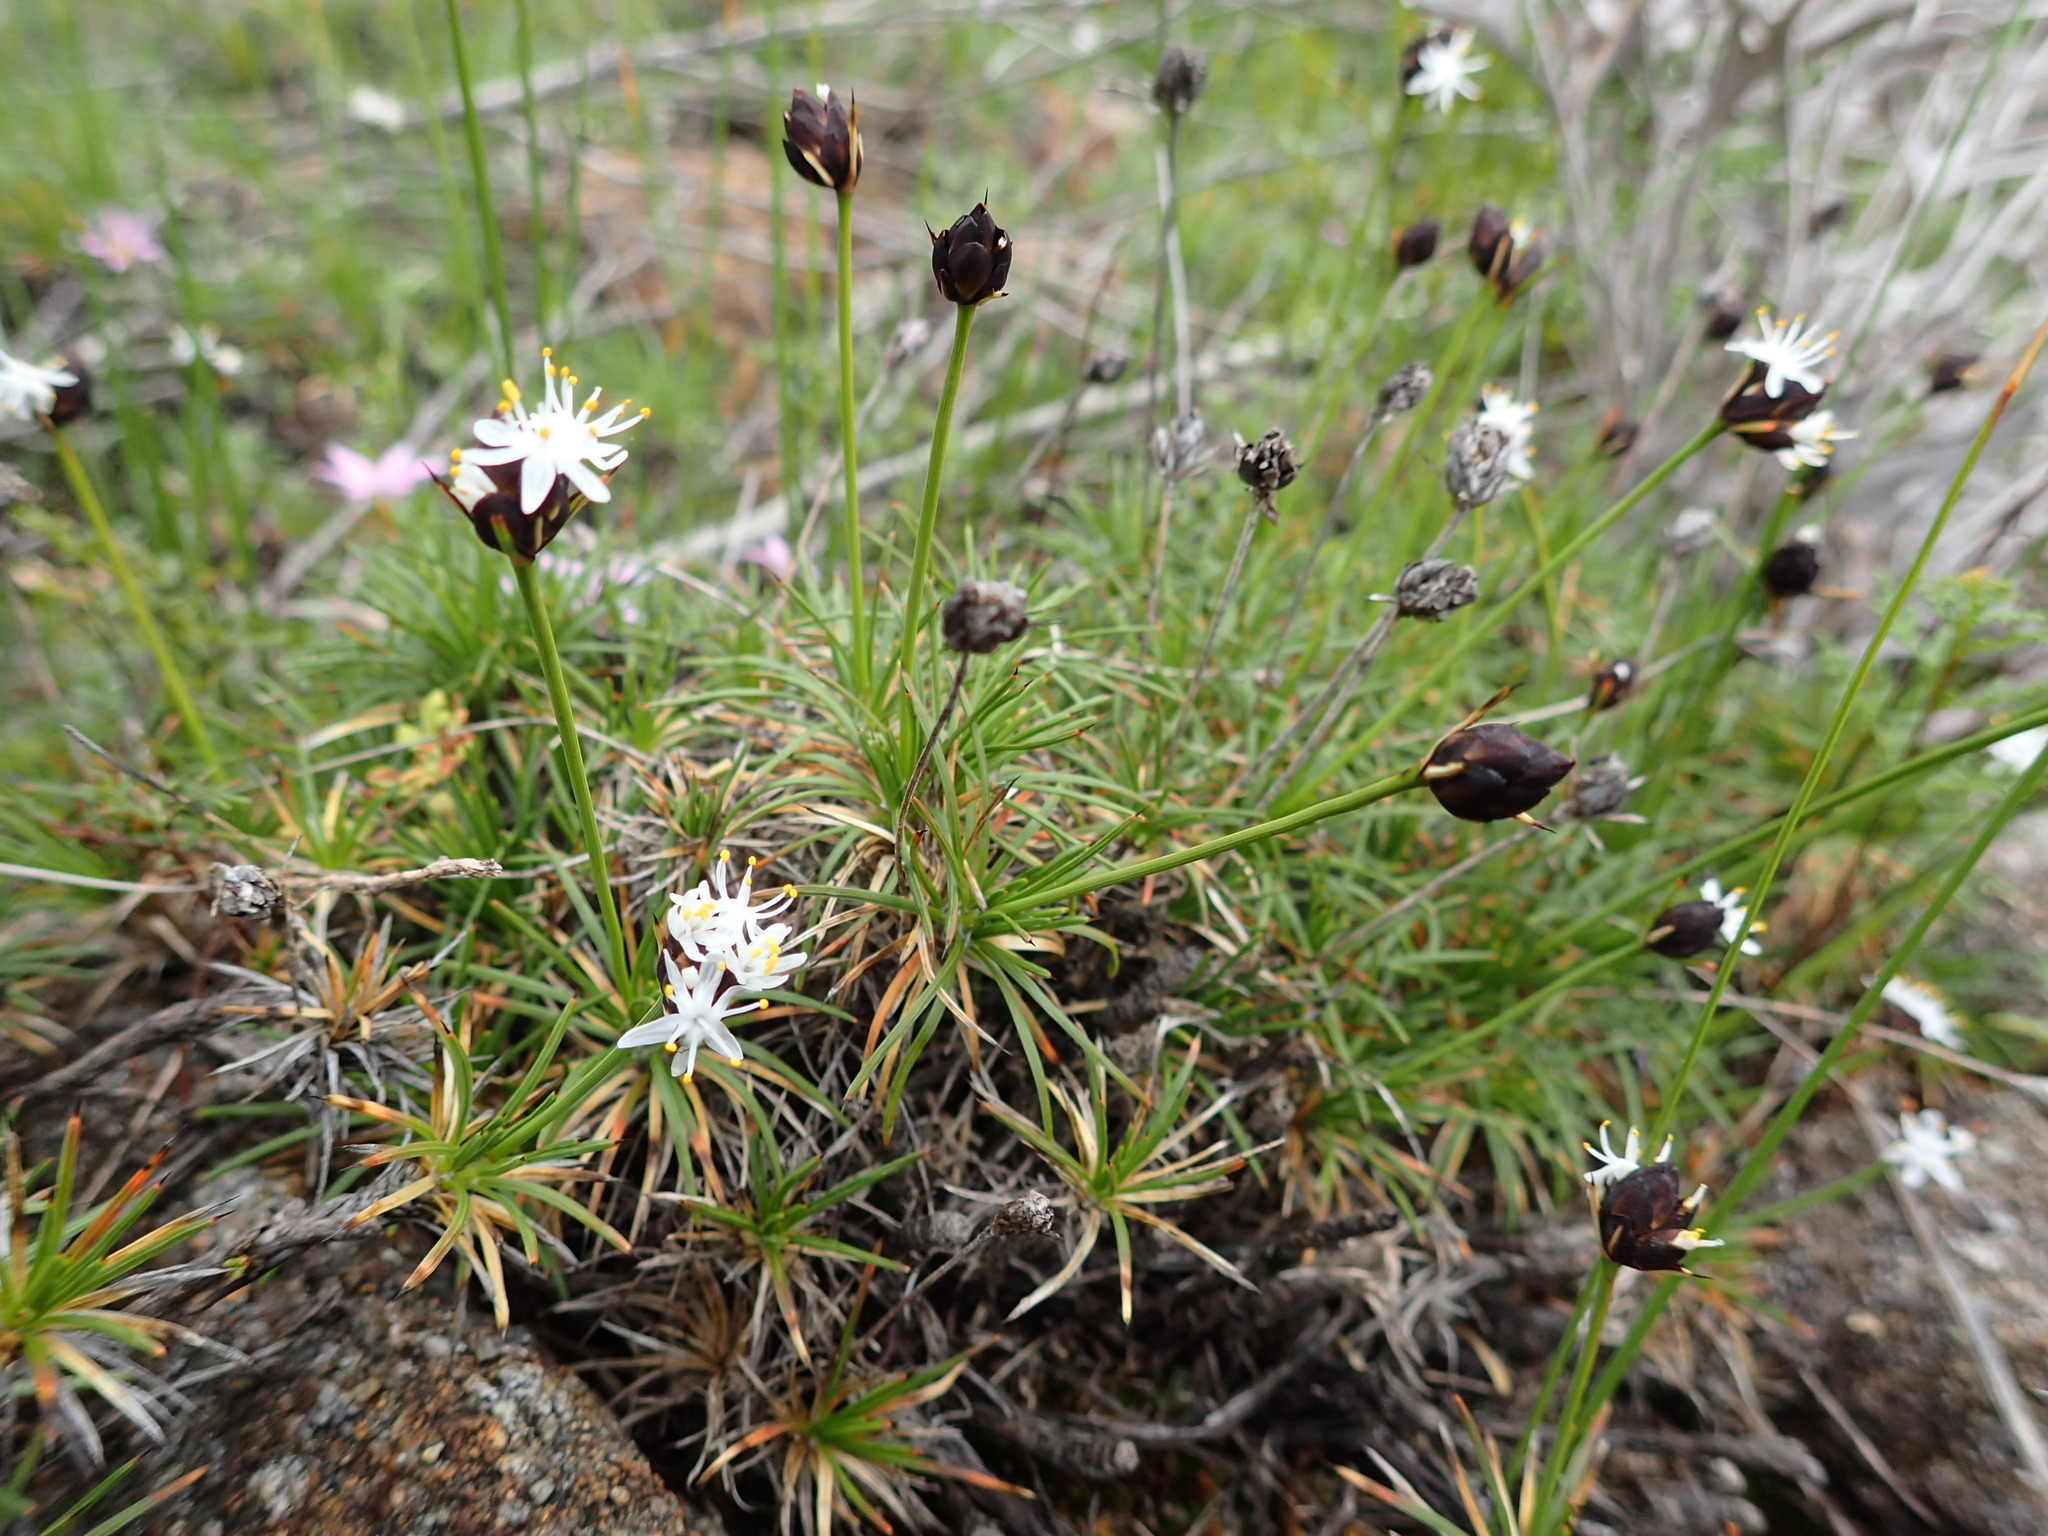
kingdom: Plantae
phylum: Tracheophyta
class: Liliopsida
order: Asparagales
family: Boryaceae
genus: Borya
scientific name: Borya sphaerocephala
